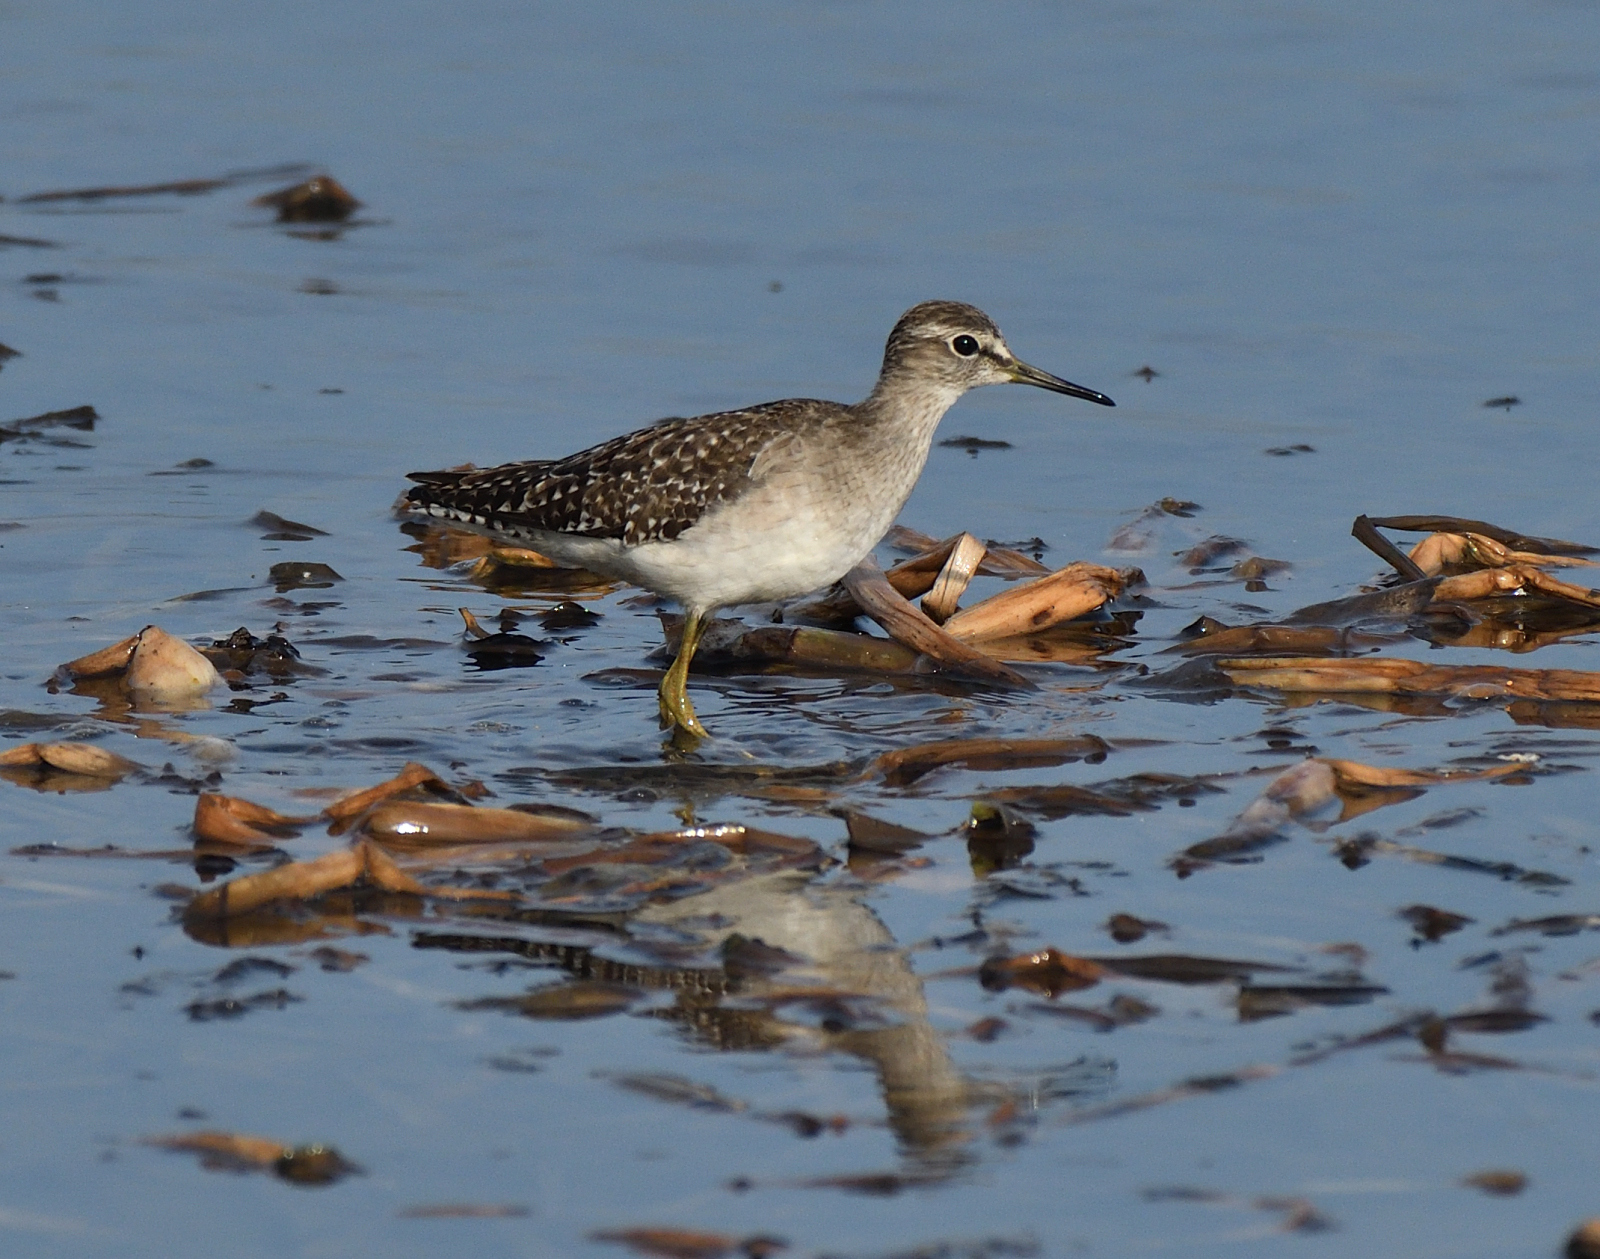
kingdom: Animalia
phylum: Chordata
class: Aves
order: Charadriiformes
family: Scolopacidae
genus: Tringa
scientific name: Tringa glareola
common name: Wood sandpiper
